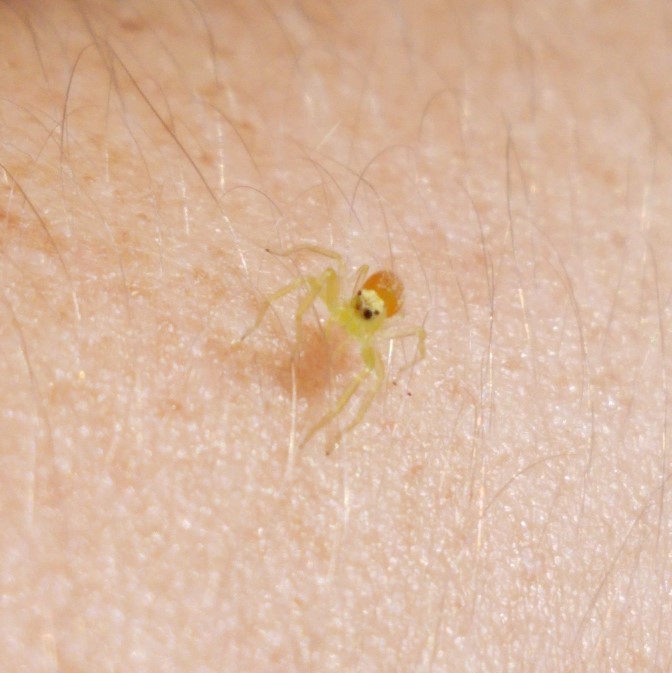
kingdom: Animalia
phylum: Arthropoda
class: Arachnida
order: Araneae
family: Salticidae
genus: Lyssomanes
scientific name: Lyssomanes viridis
